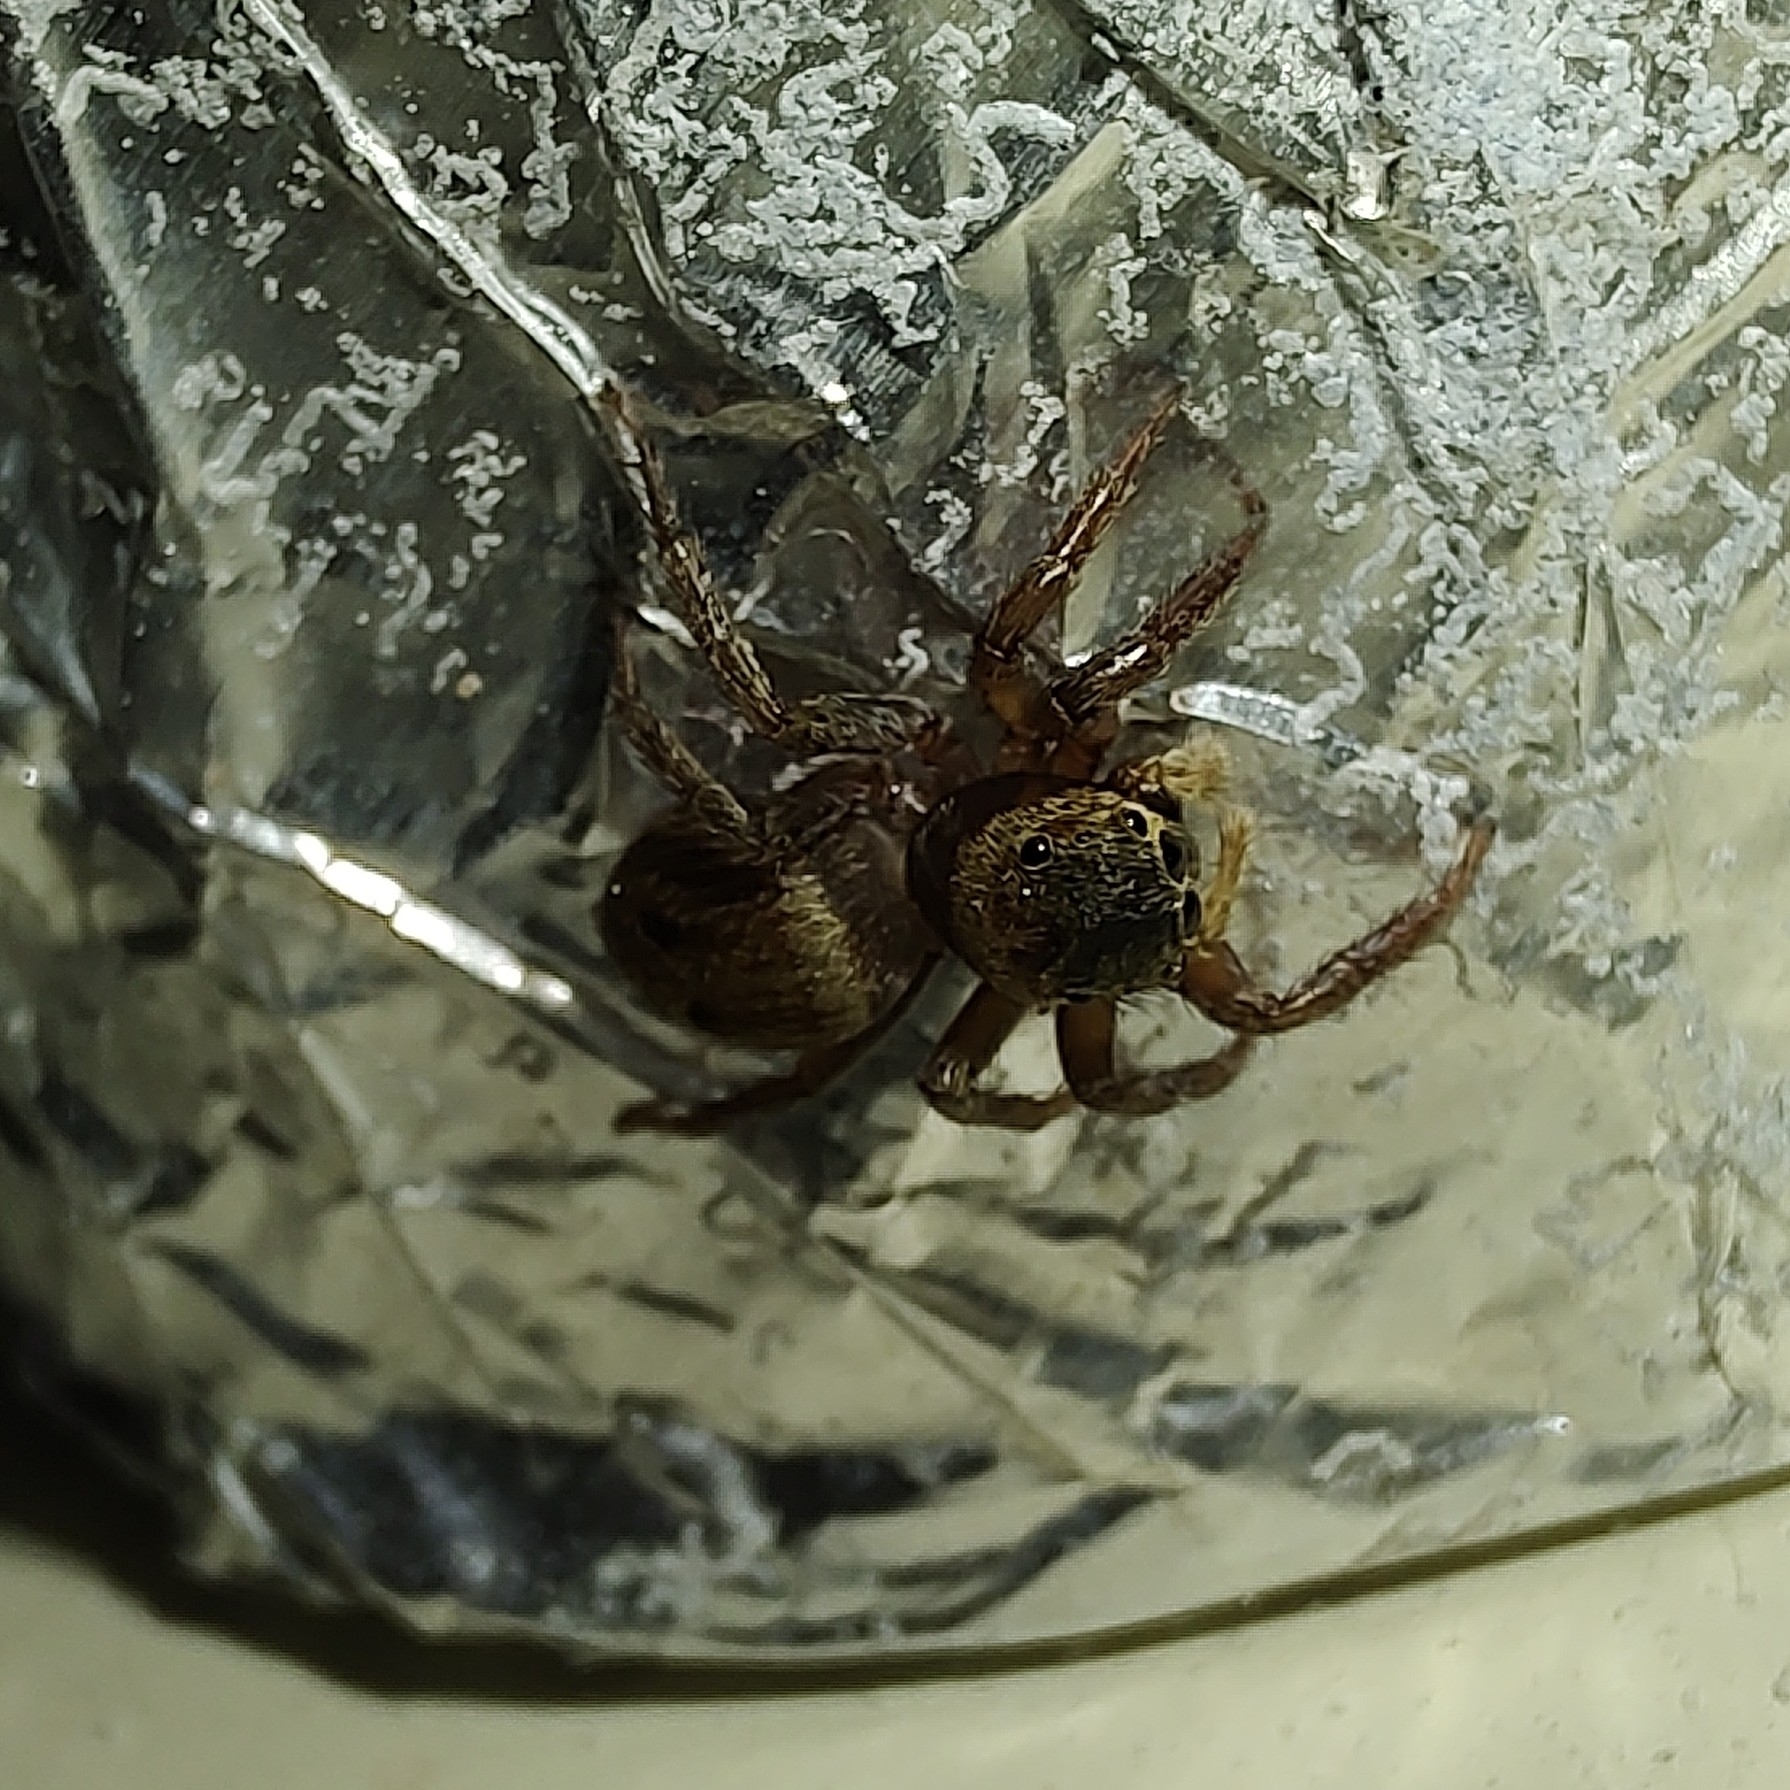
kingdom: Animalia
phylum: Arthropoda
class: Arachnida
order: Araneae
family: Salticidae
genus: Hasarius
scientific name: Hasarius adansoni
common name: Jumping spider
